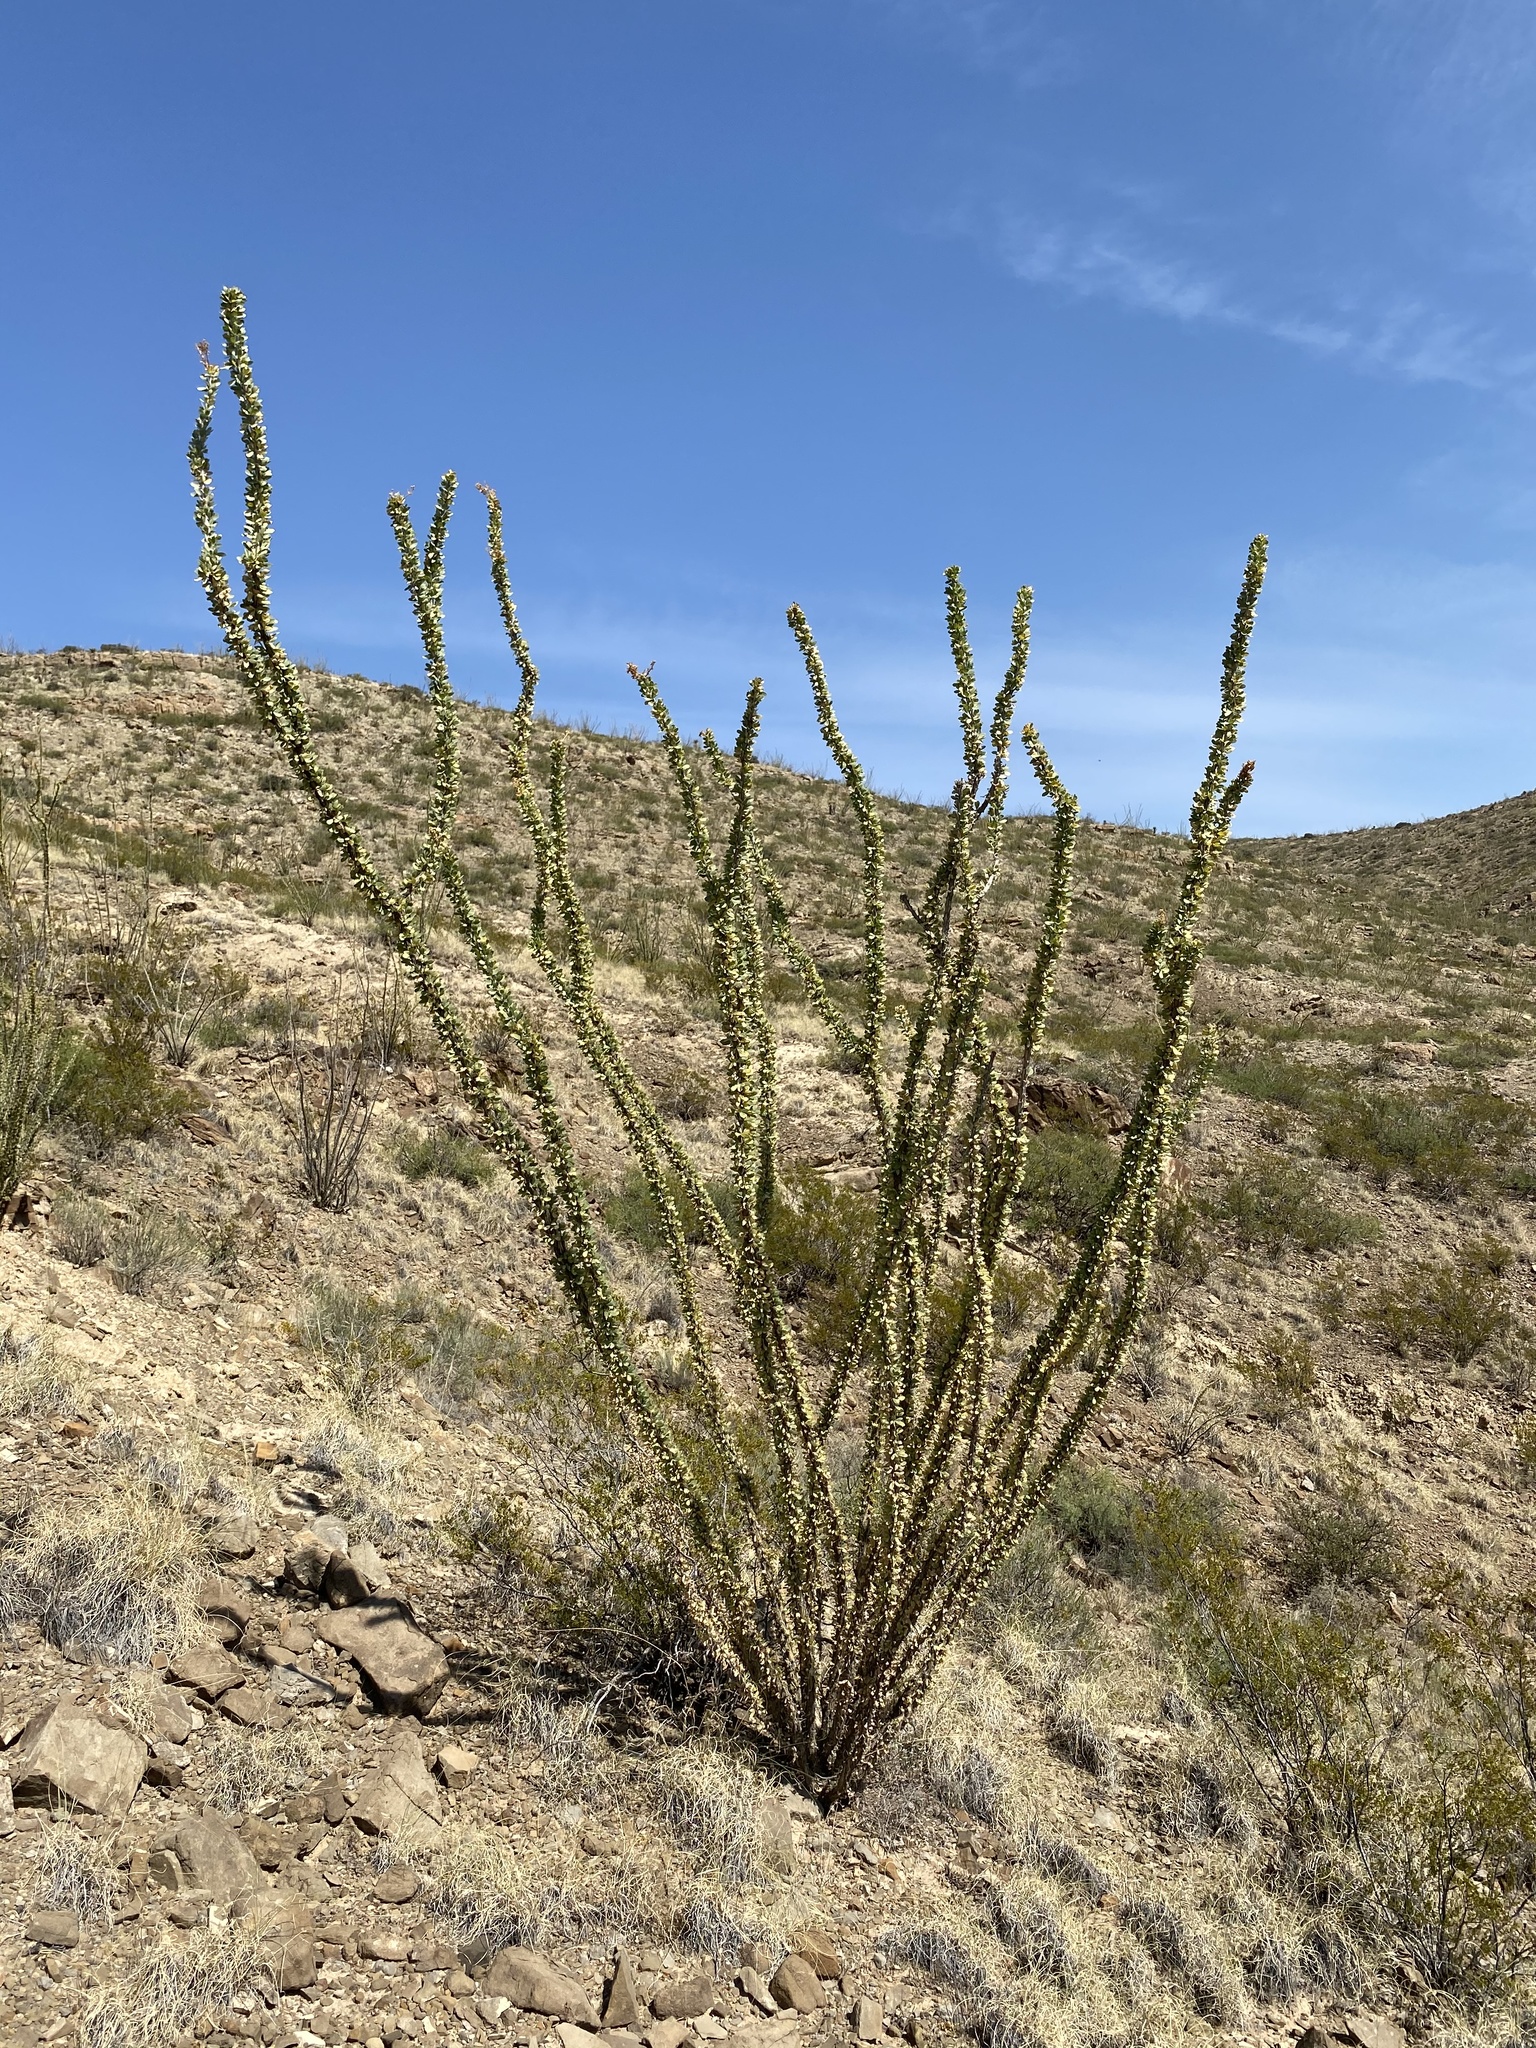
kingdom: Plantae
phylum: Tracheophyta
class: Magnoliopsida
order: Ericales
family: Fouquieriaceae
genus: Fouquieria
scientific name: Fouquieria splendens
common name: Vine-cactus
